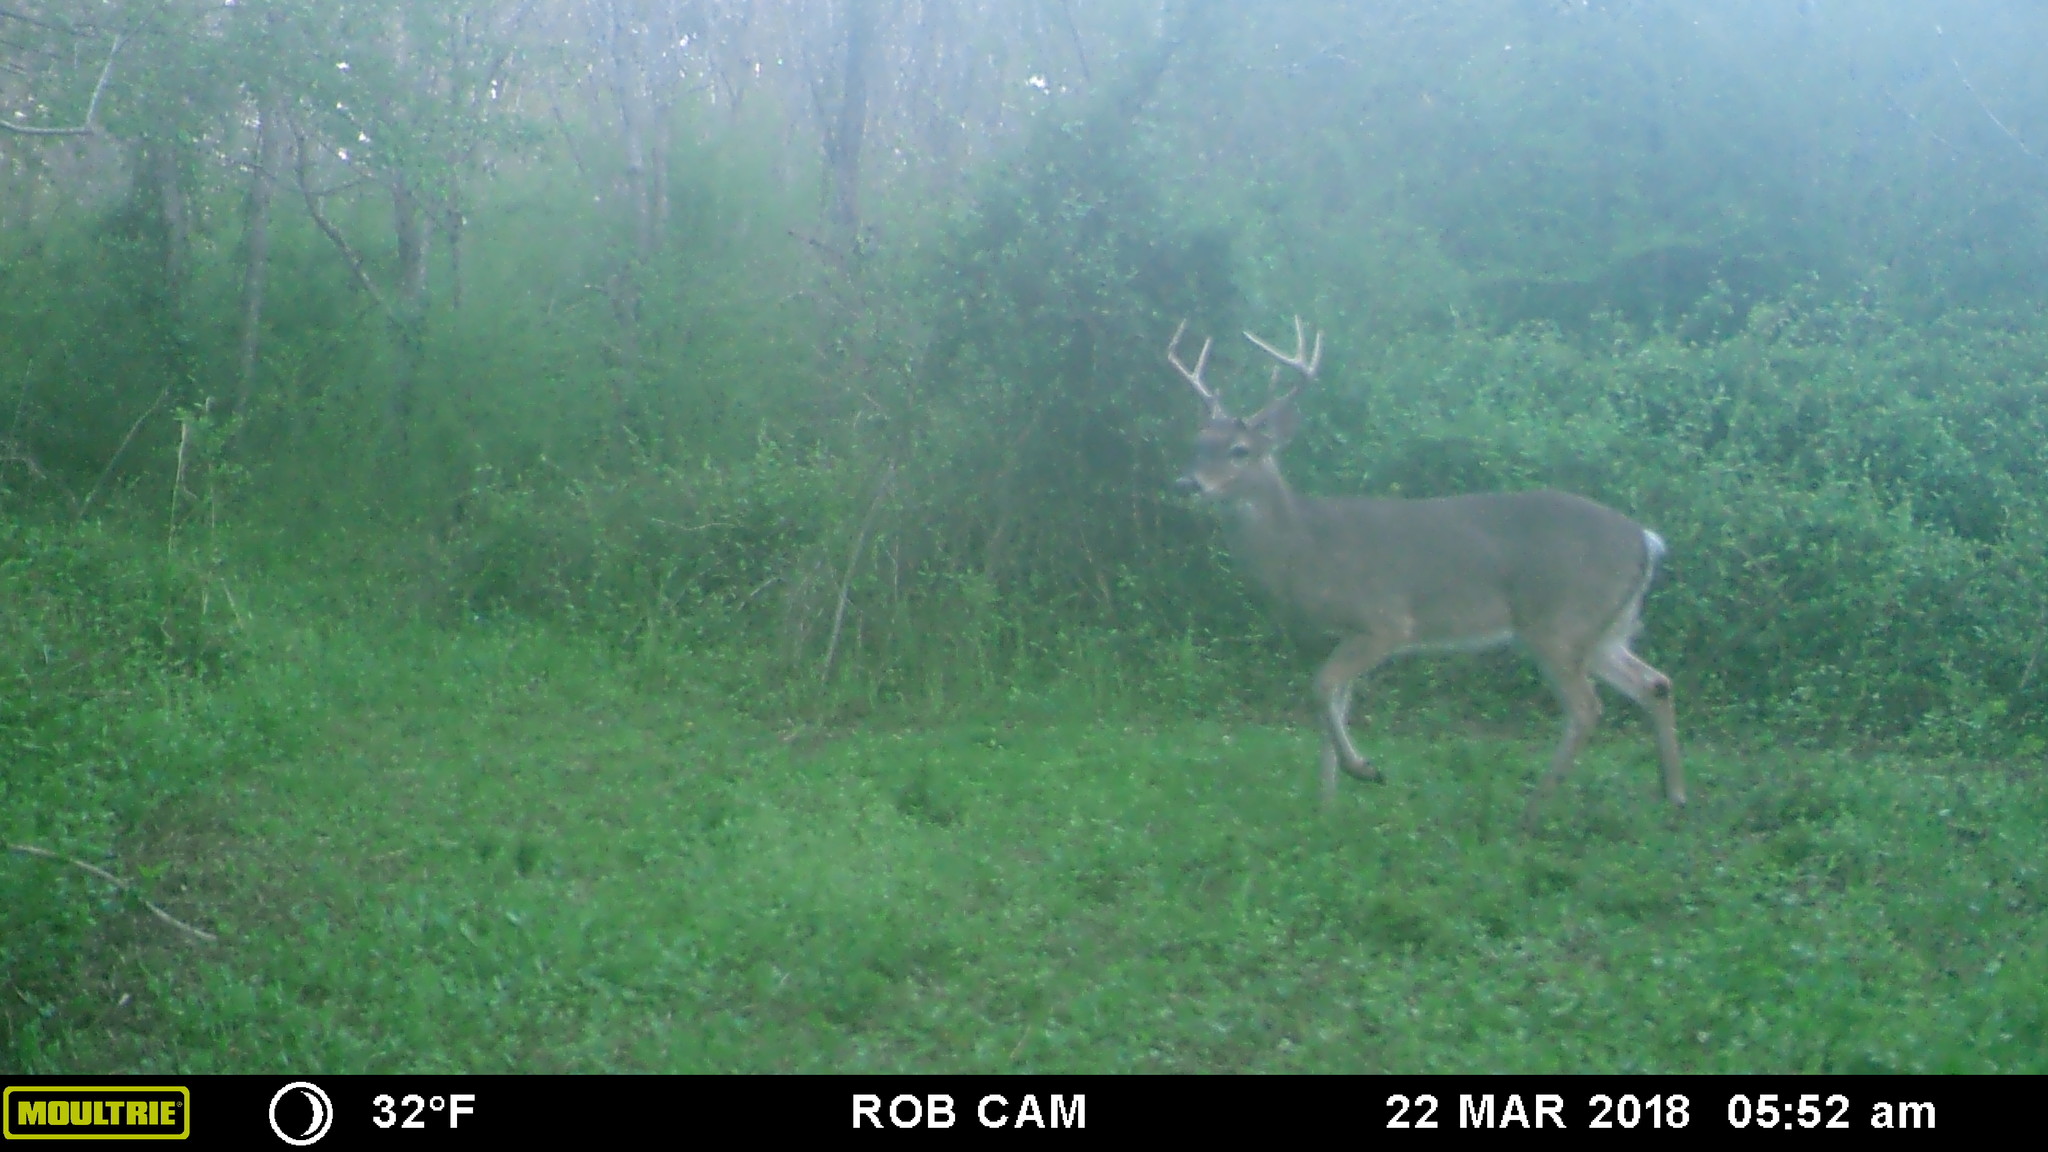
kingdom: Animalia
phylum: Chordata
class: Mammalia
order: Artiodactyla
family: Cervidae
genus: Odocoileus
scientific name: Odocoileus virginianus
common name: White-tailed deer
